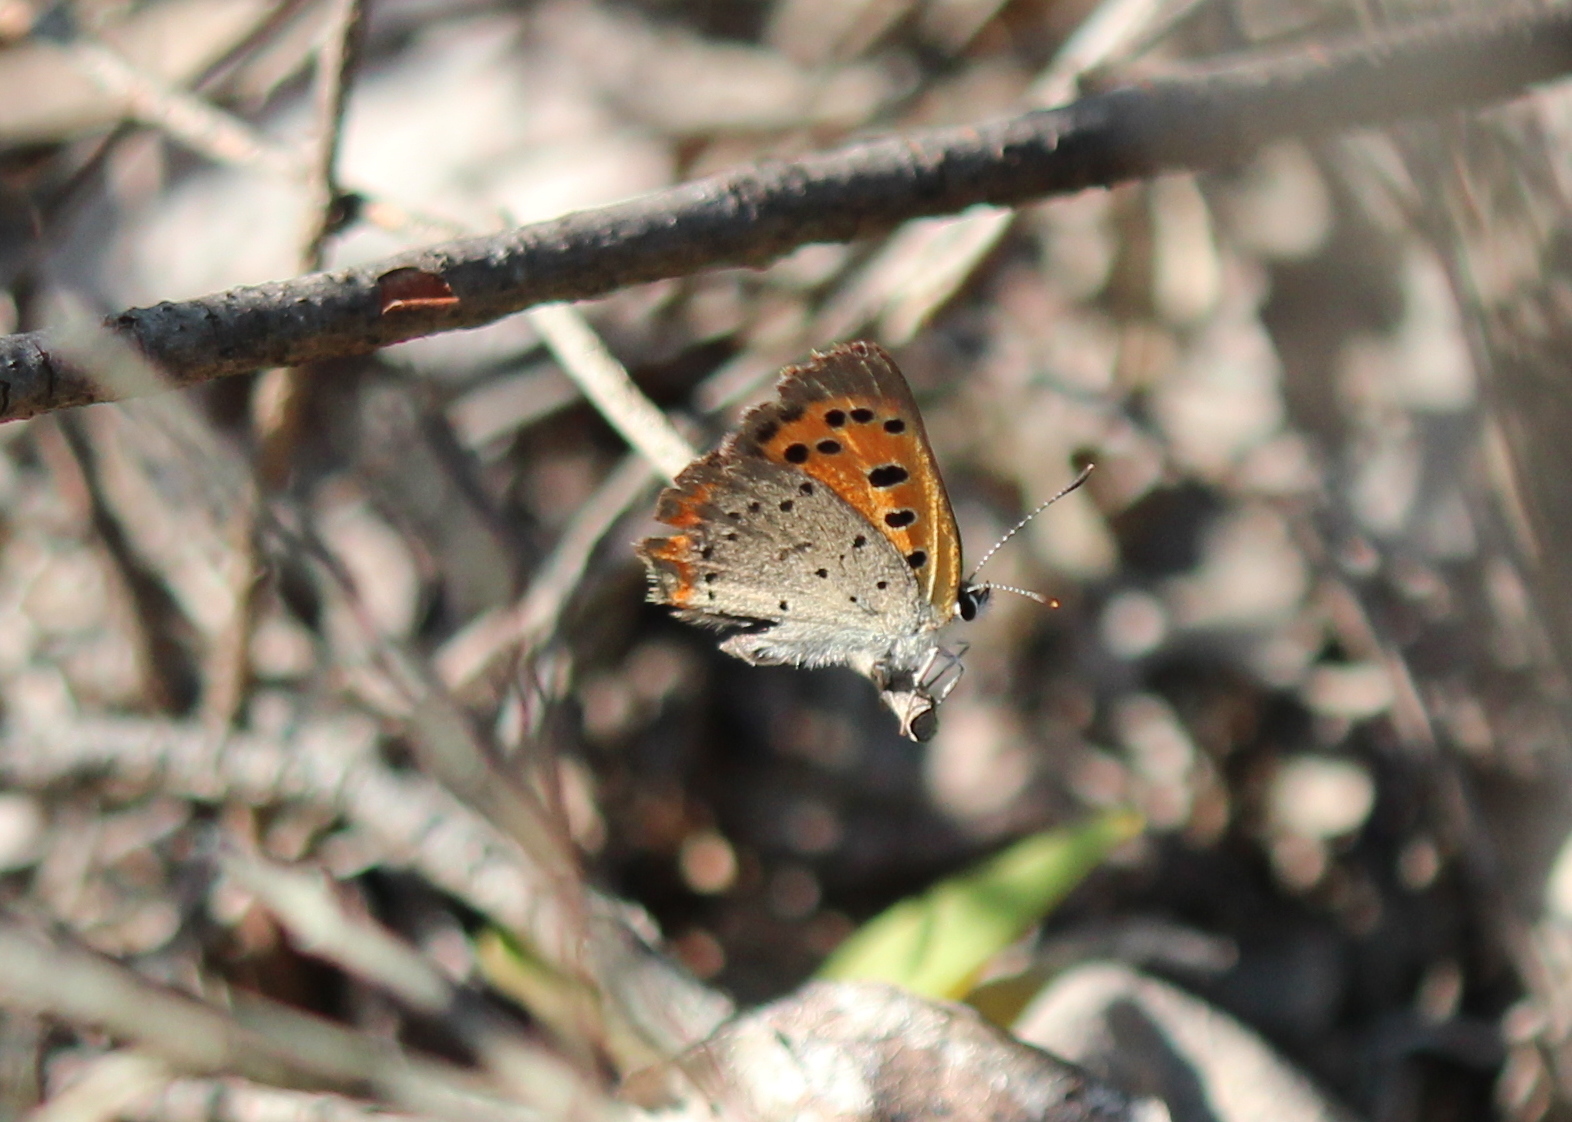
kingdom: Animalia
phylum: Arthropoda
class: Insecta
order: Lepidoptera
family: Lycaenidae
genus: Lycaena
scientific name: Lycaena hypophlaeas
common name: American copper
